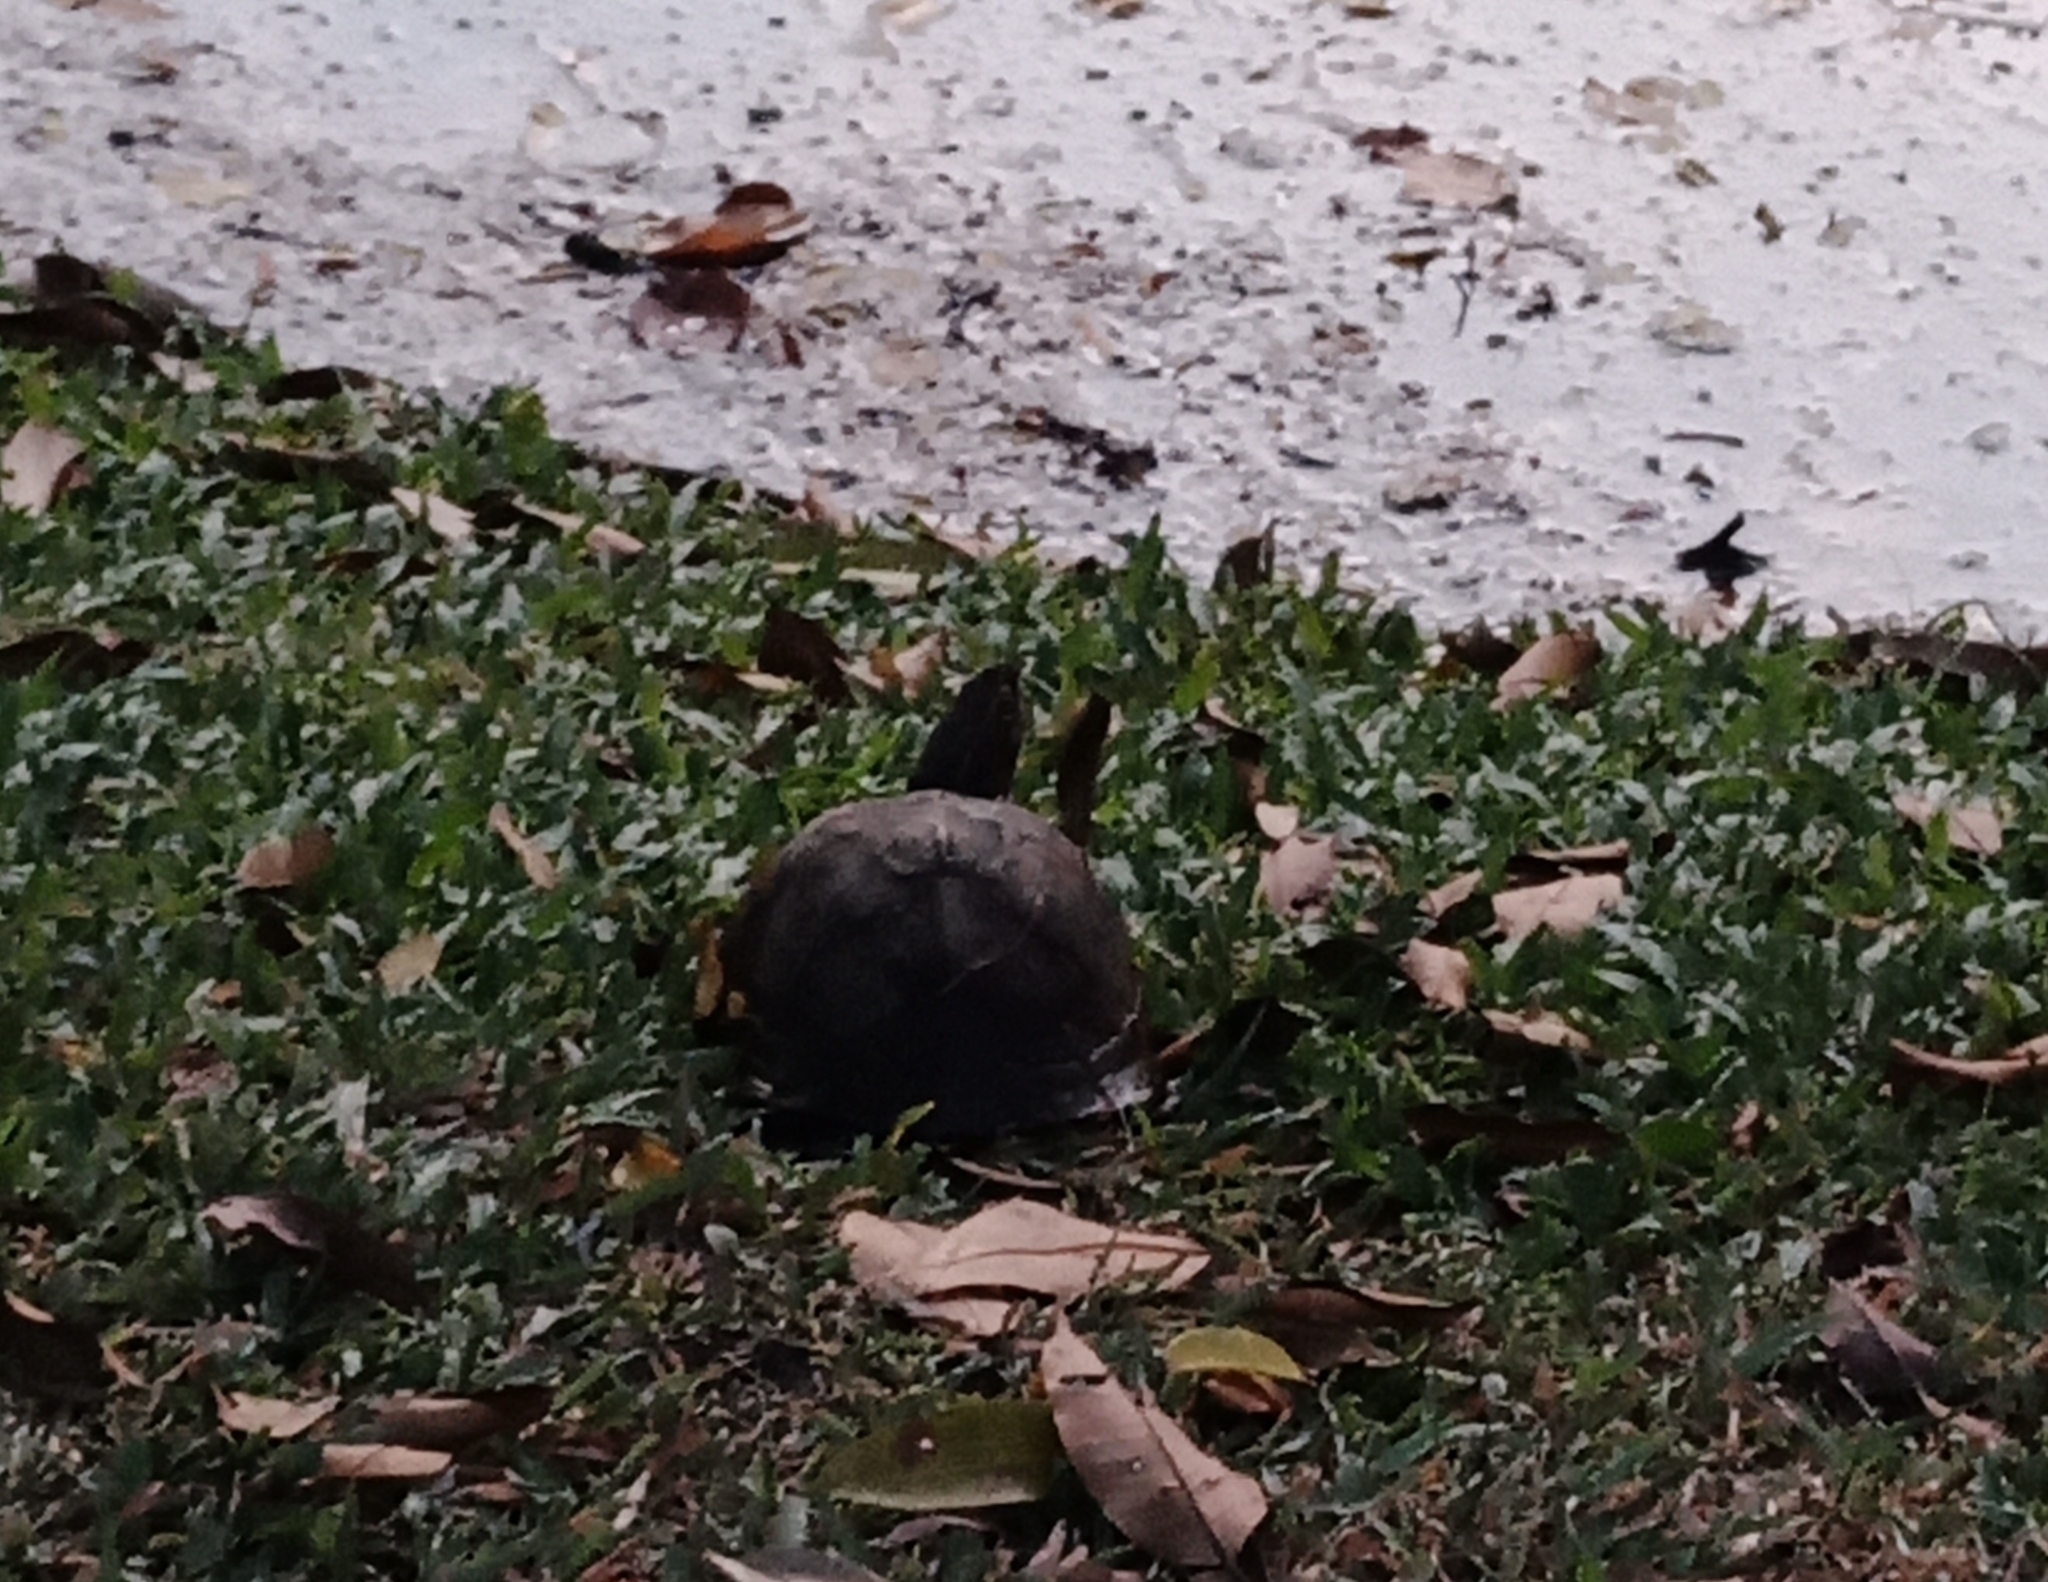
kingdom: Animalia
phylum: Chordata
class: Testudines
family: Geoemydidae
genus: Cuora
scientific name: Cuora
